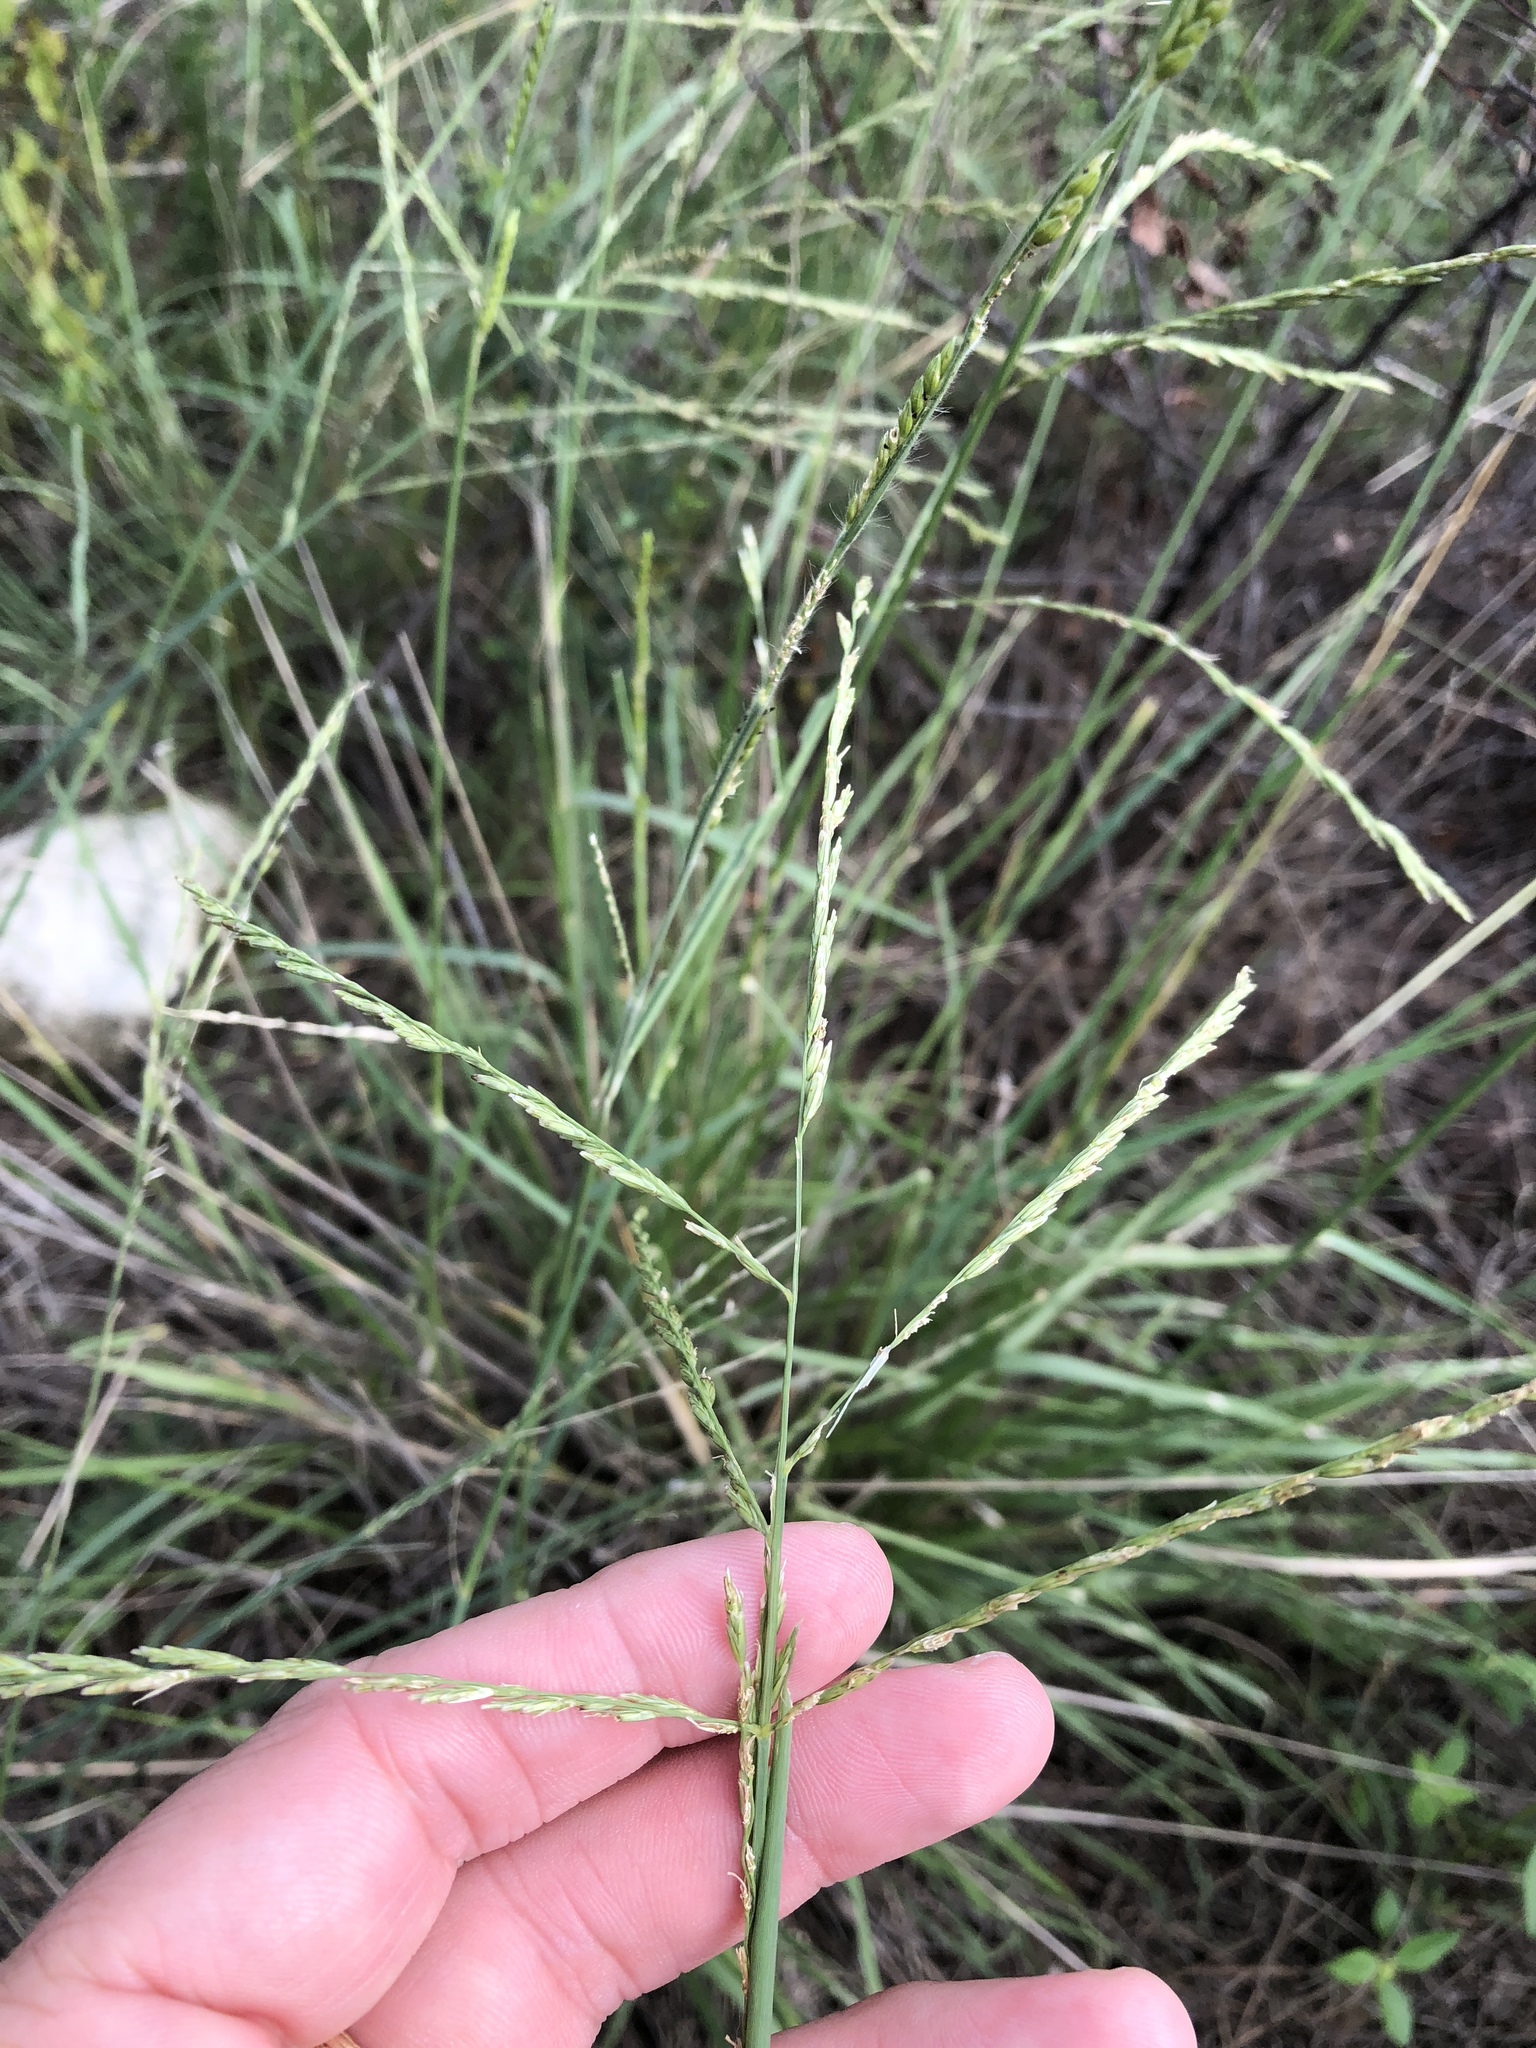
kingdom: Plantae
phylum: Tracheophyta
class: Liliopsida
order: Poales
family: Poaceae
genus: Disakisperma
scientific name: Disakisperma dubium
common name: Green sprangletop
